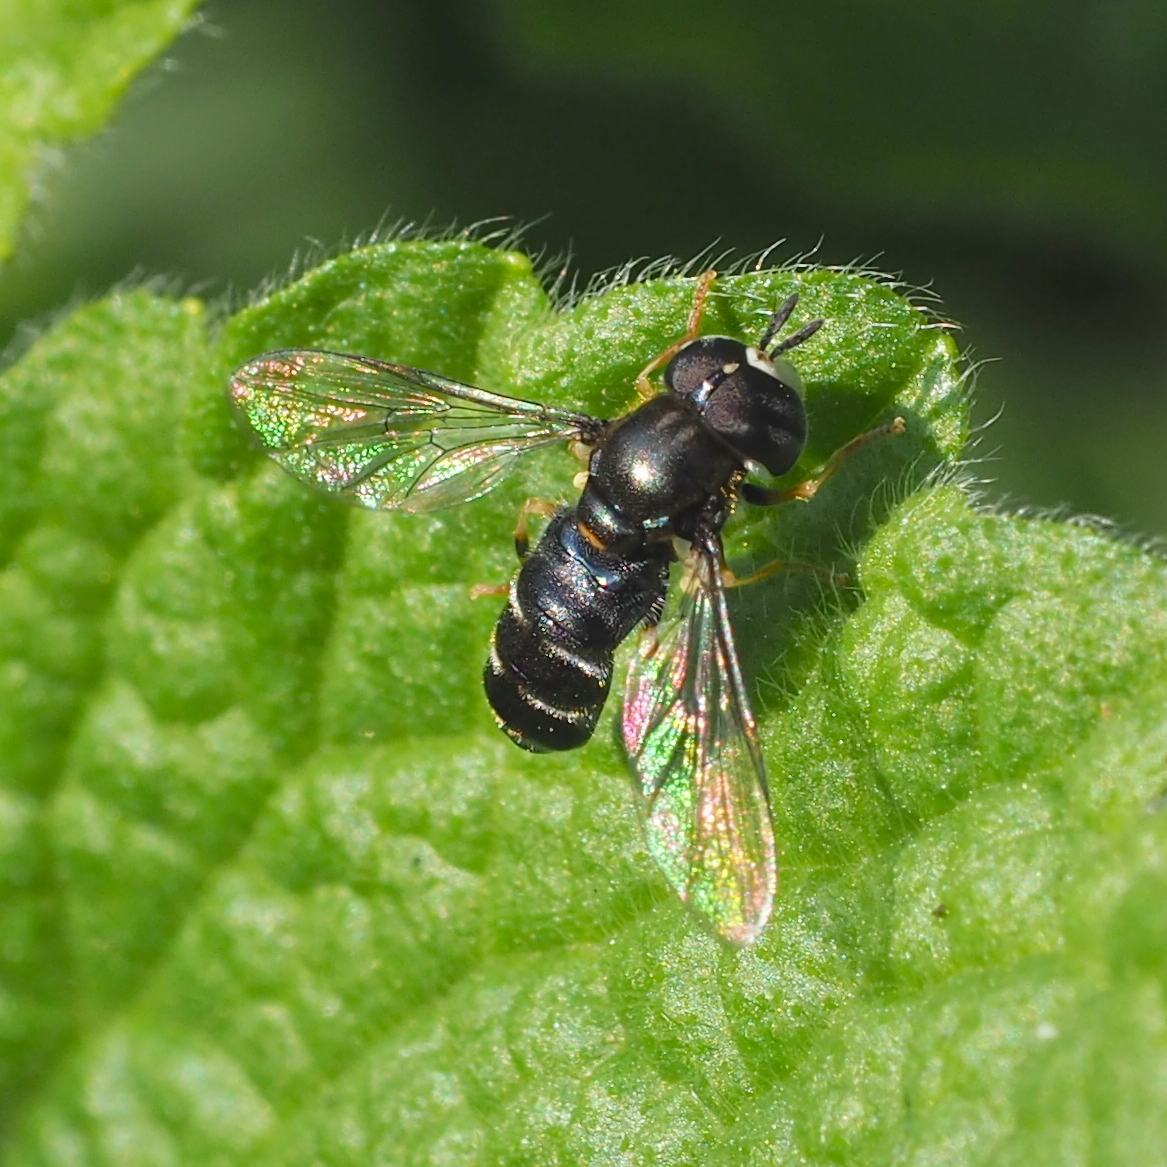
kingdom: Animalia
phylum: Arthropoda
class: Insecta
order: Diptera
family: Syrphidae
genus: Paragus
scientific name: Paragus pecchiolii
